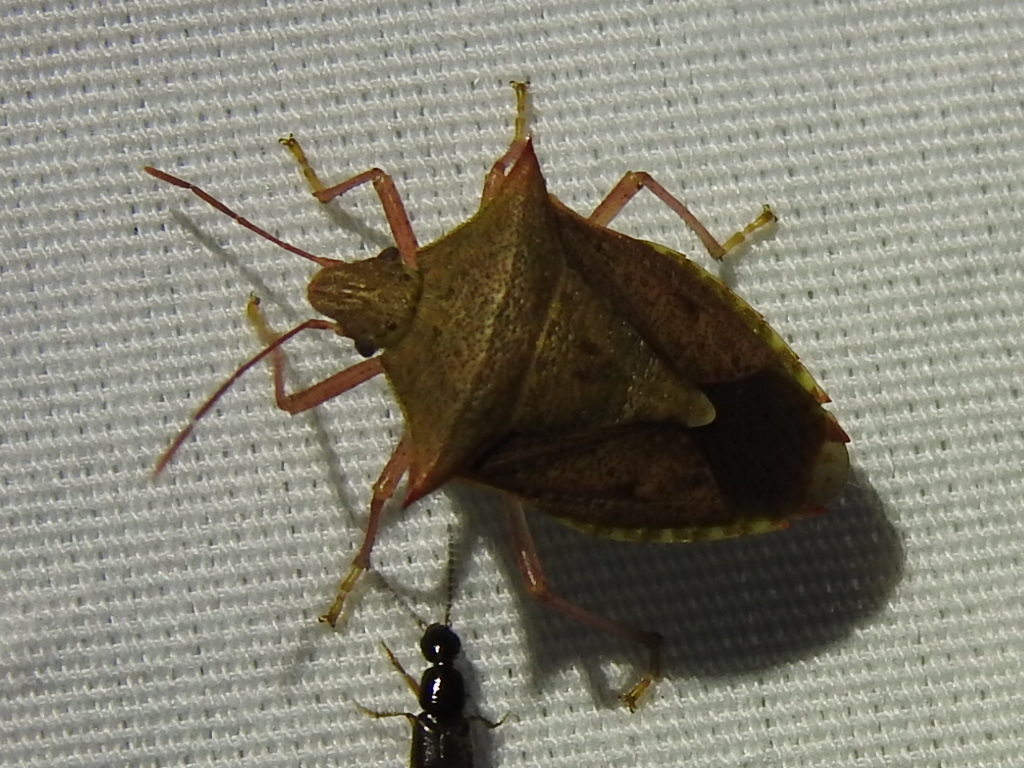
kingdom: Animalia
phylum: Arthropoda
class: Insecta
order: Hemiptera
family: Pentatomidae
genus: Euschistus
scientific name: Euschistus ictericus
